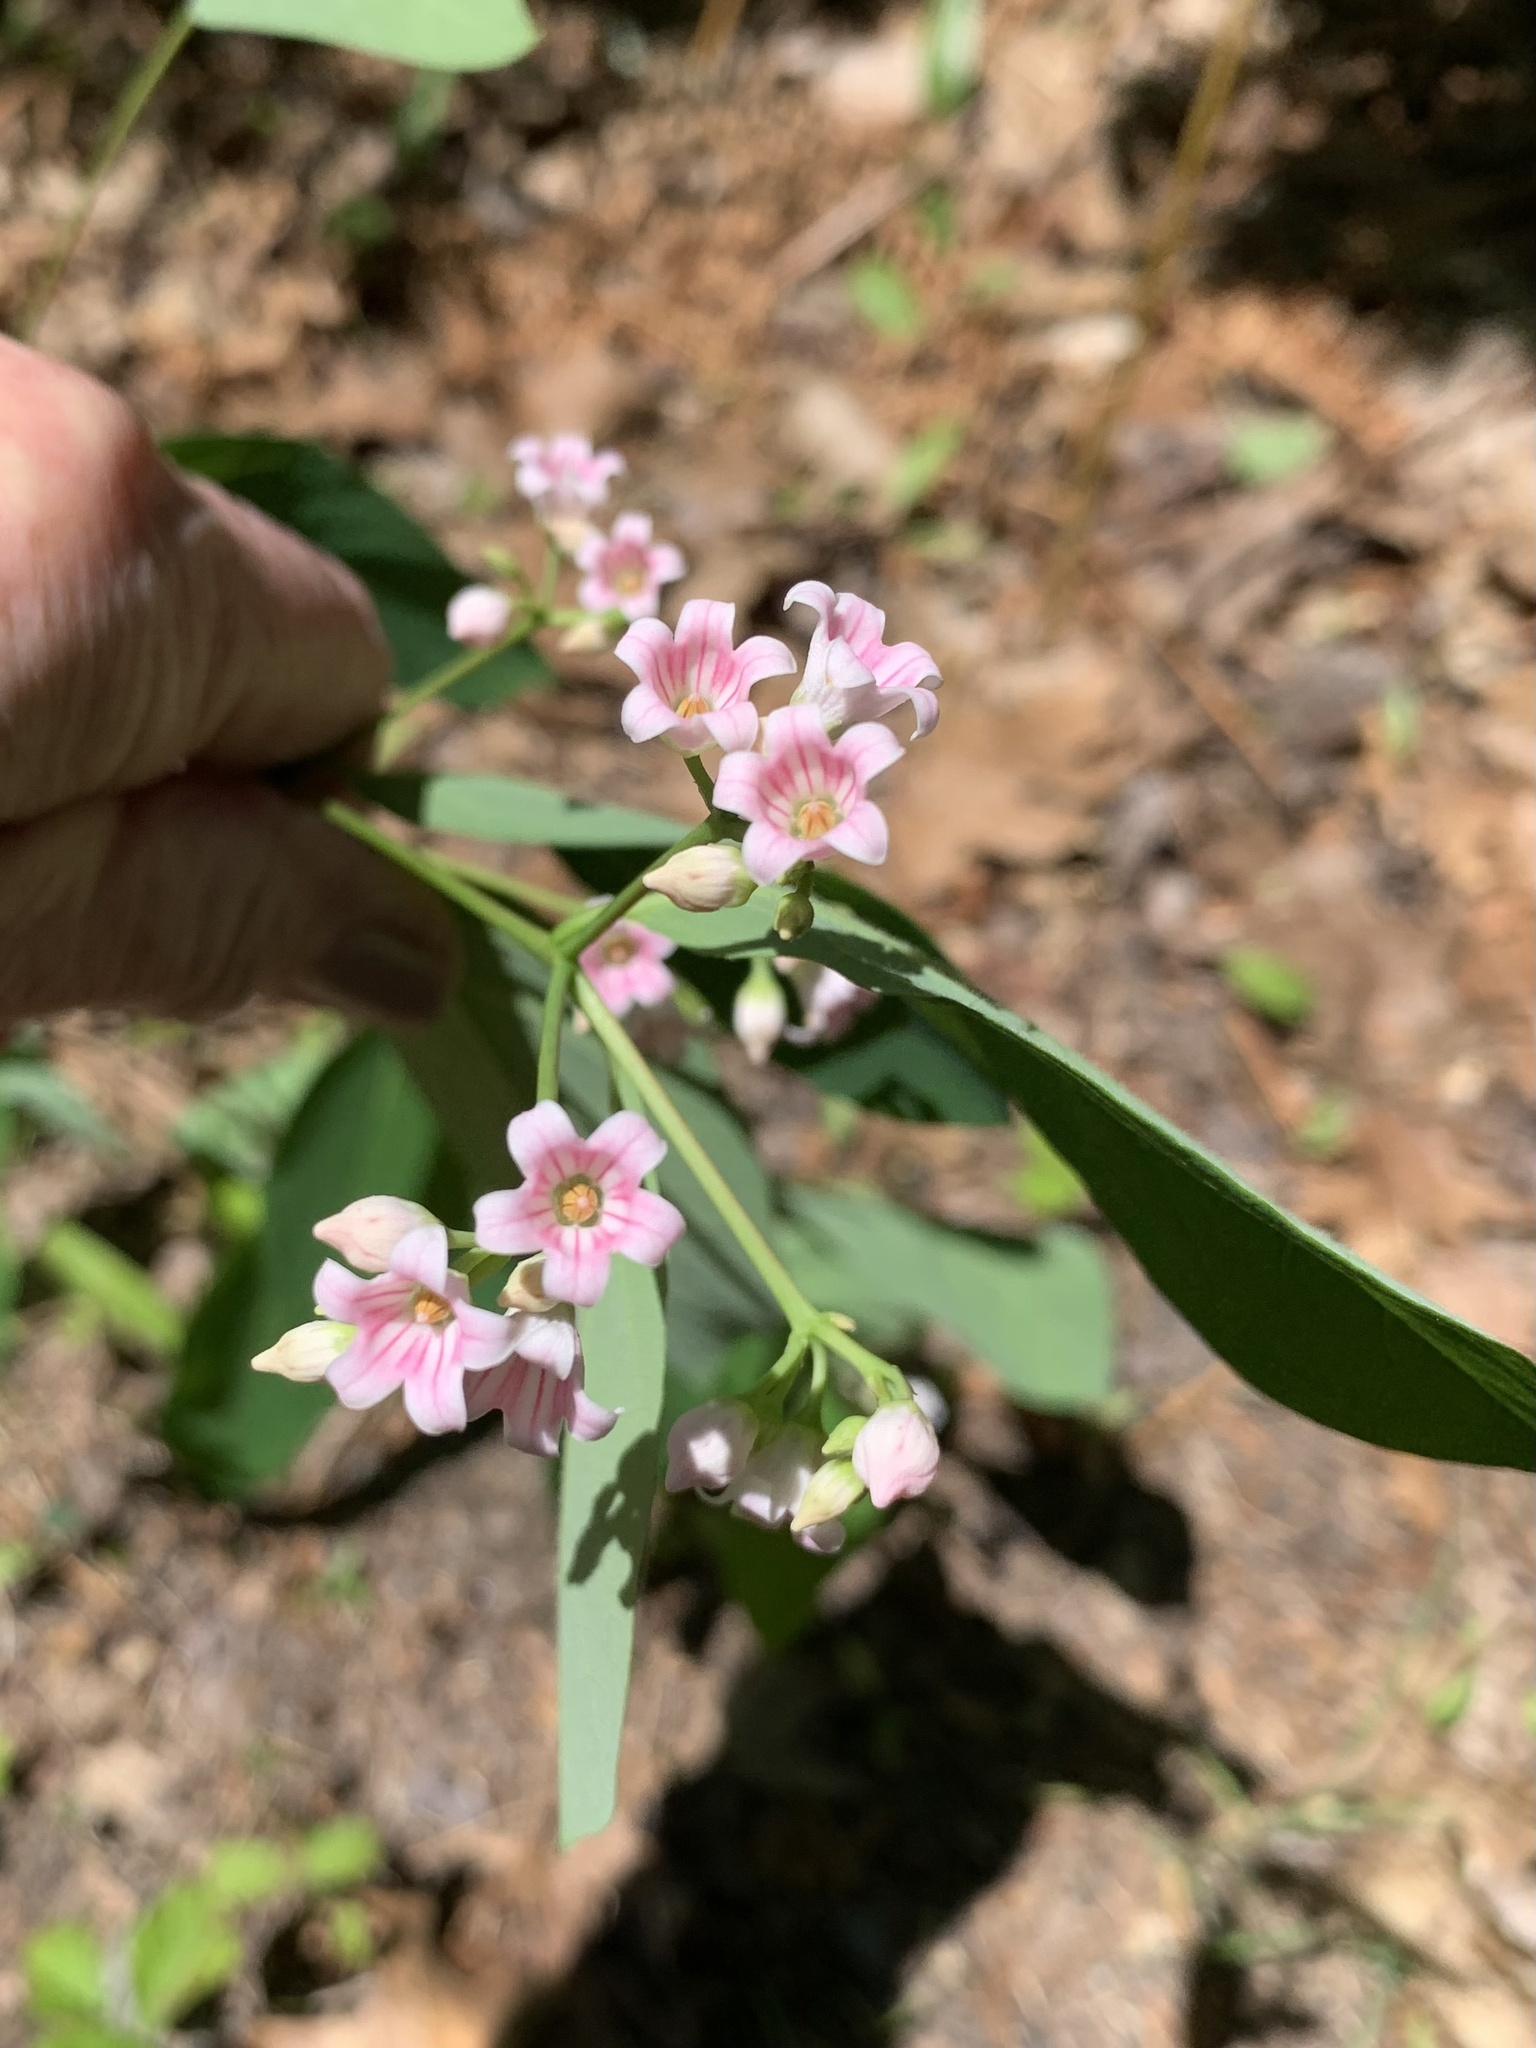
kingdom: Plantae
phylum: Tracheophyta
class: Magnoliopsida
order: Gentianales
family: Apocynaceae
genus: Apocynum
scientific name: Apocynum androsaemifolium
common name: Spreading dogbane
